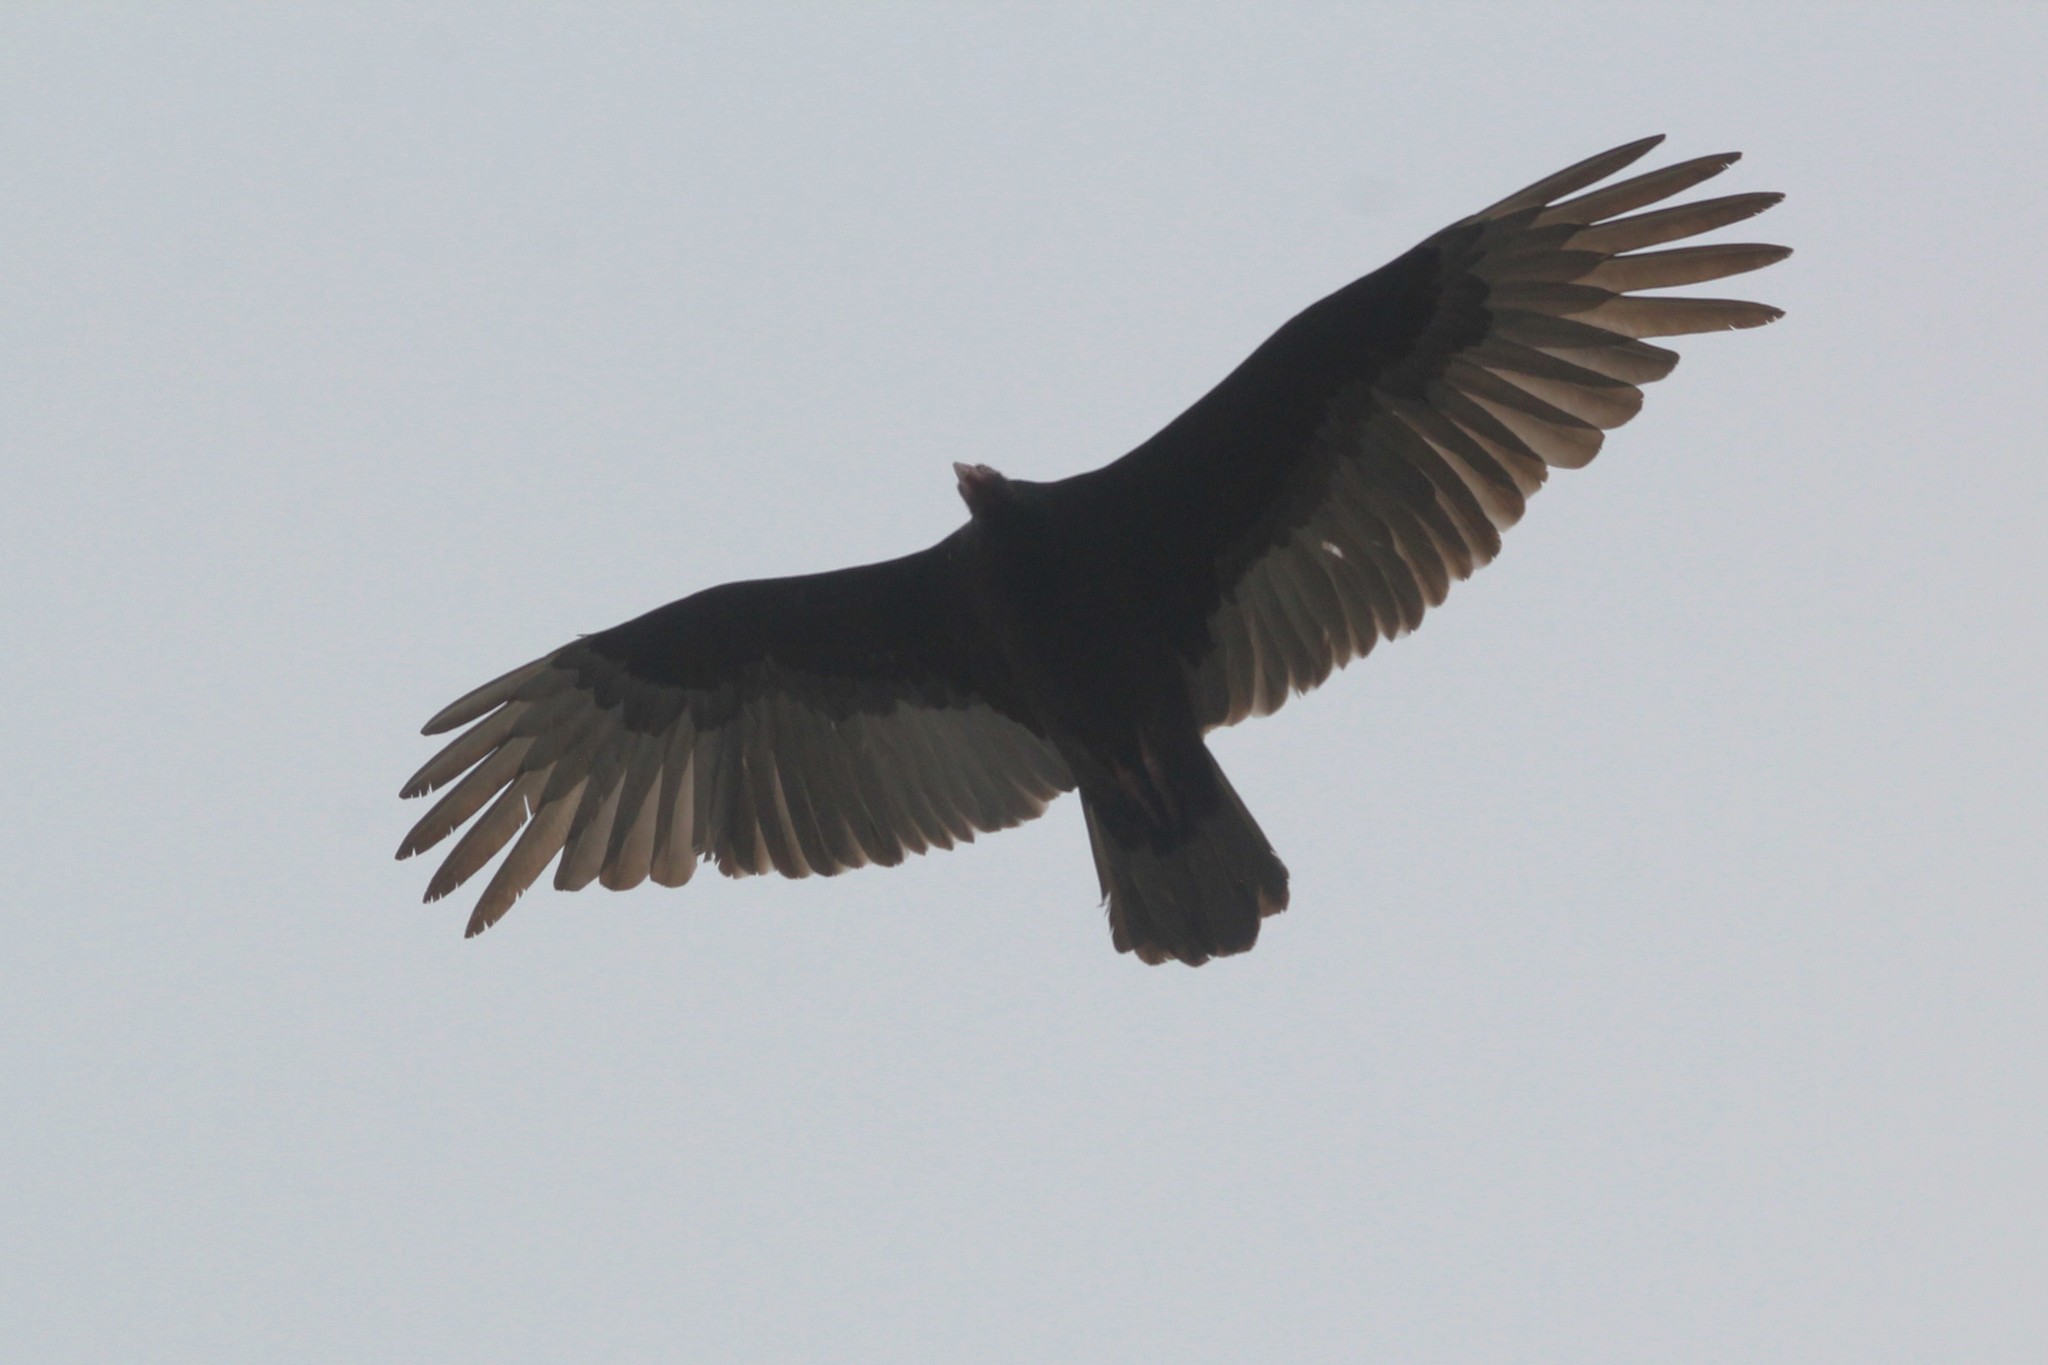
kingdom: Animalia
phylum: Chordata
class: Aves
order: Accipitriformes
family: Cathartidae
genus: Cathartes
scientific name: Cathartes aura
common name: Turkey vulture
